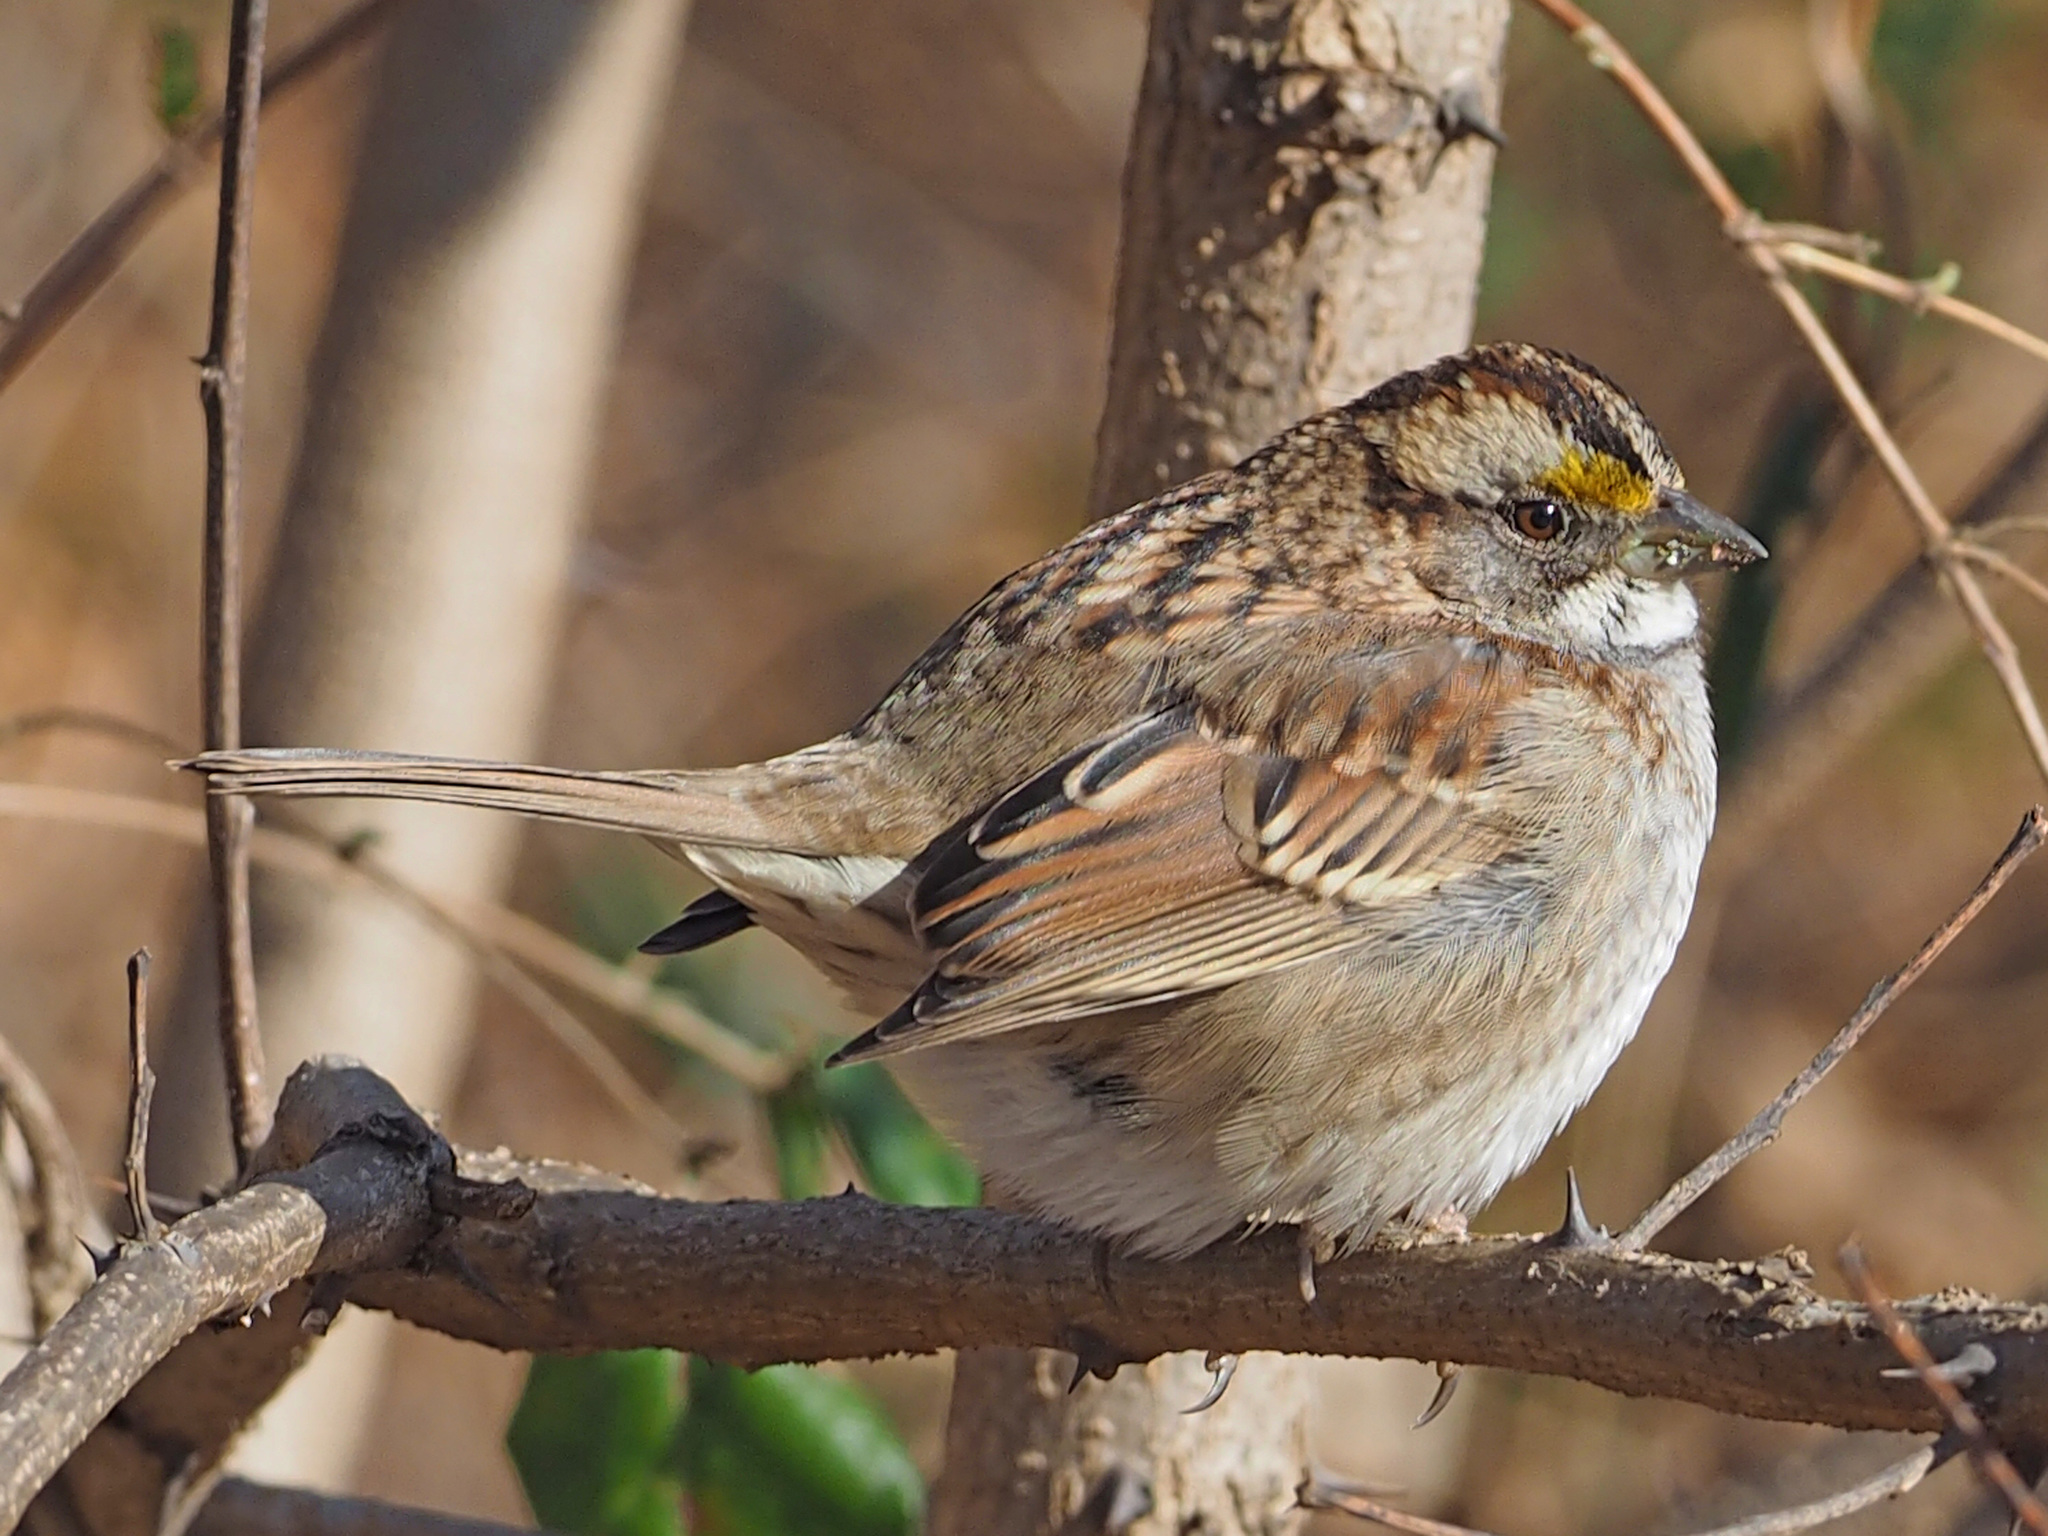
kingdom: Animalia
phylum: Chordata
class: Aves
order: Passeriformes
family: Passerellidae
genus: Zonotrichia
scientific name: Zonotrichia albicollis
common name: White-throated sparrow
